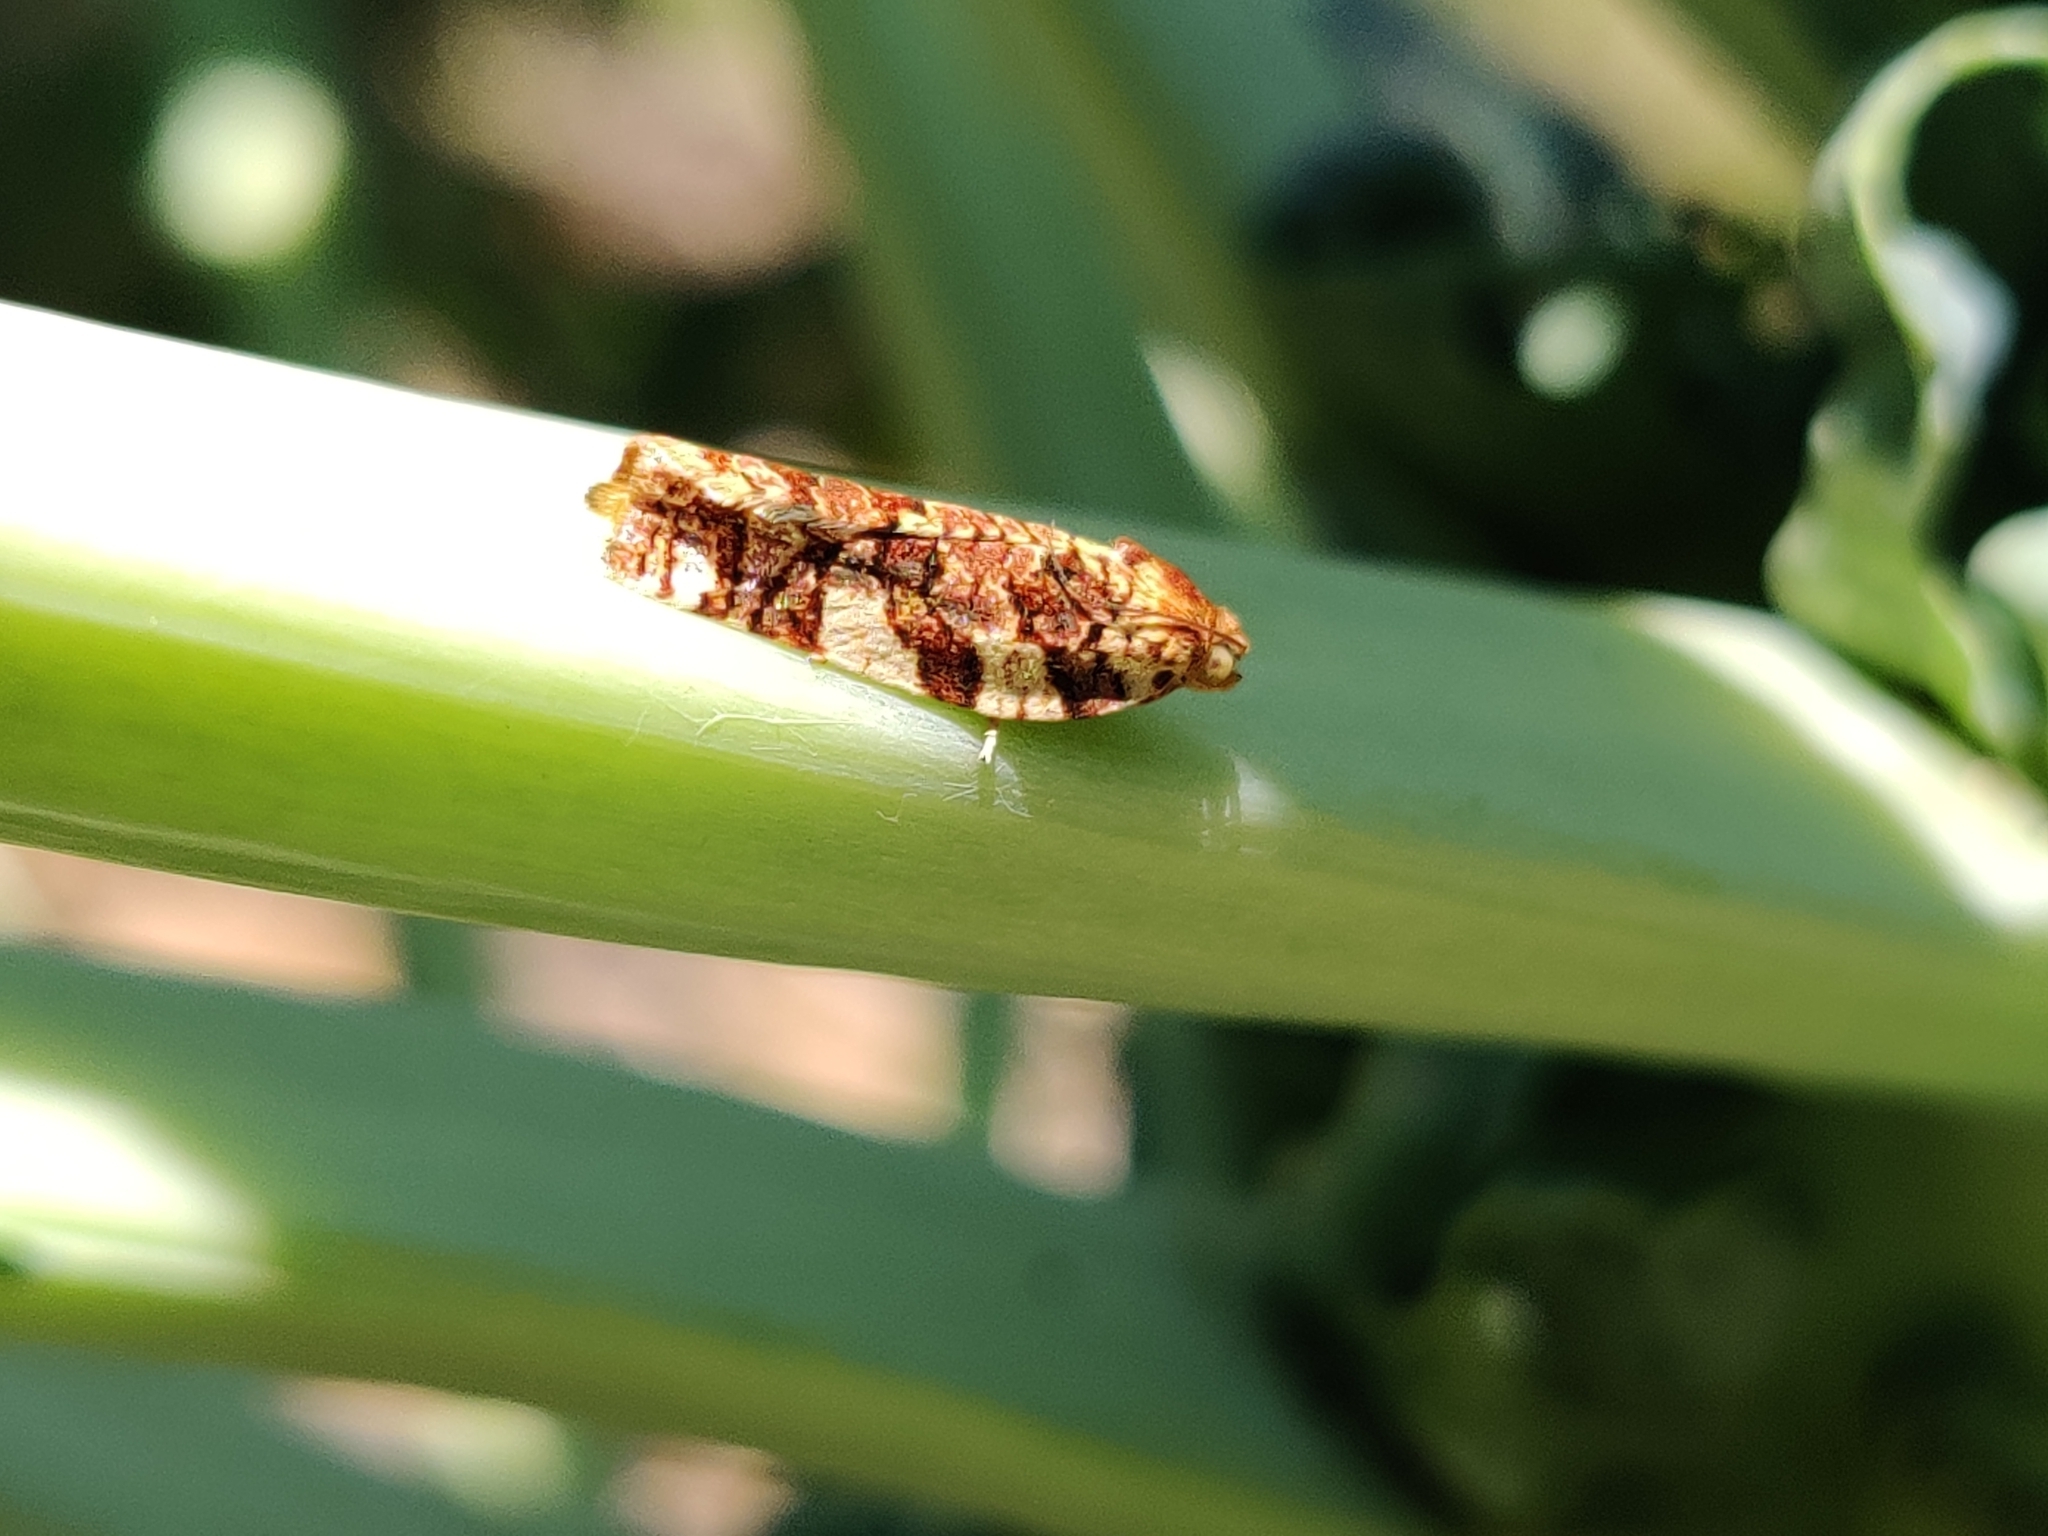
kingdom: Animalia
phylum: Arthropoda
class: Insecta
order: Lepidoptera
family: Tortricidae
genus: Archips
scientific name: Archips argyrospila
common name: Fruit-tree leafroller moth
